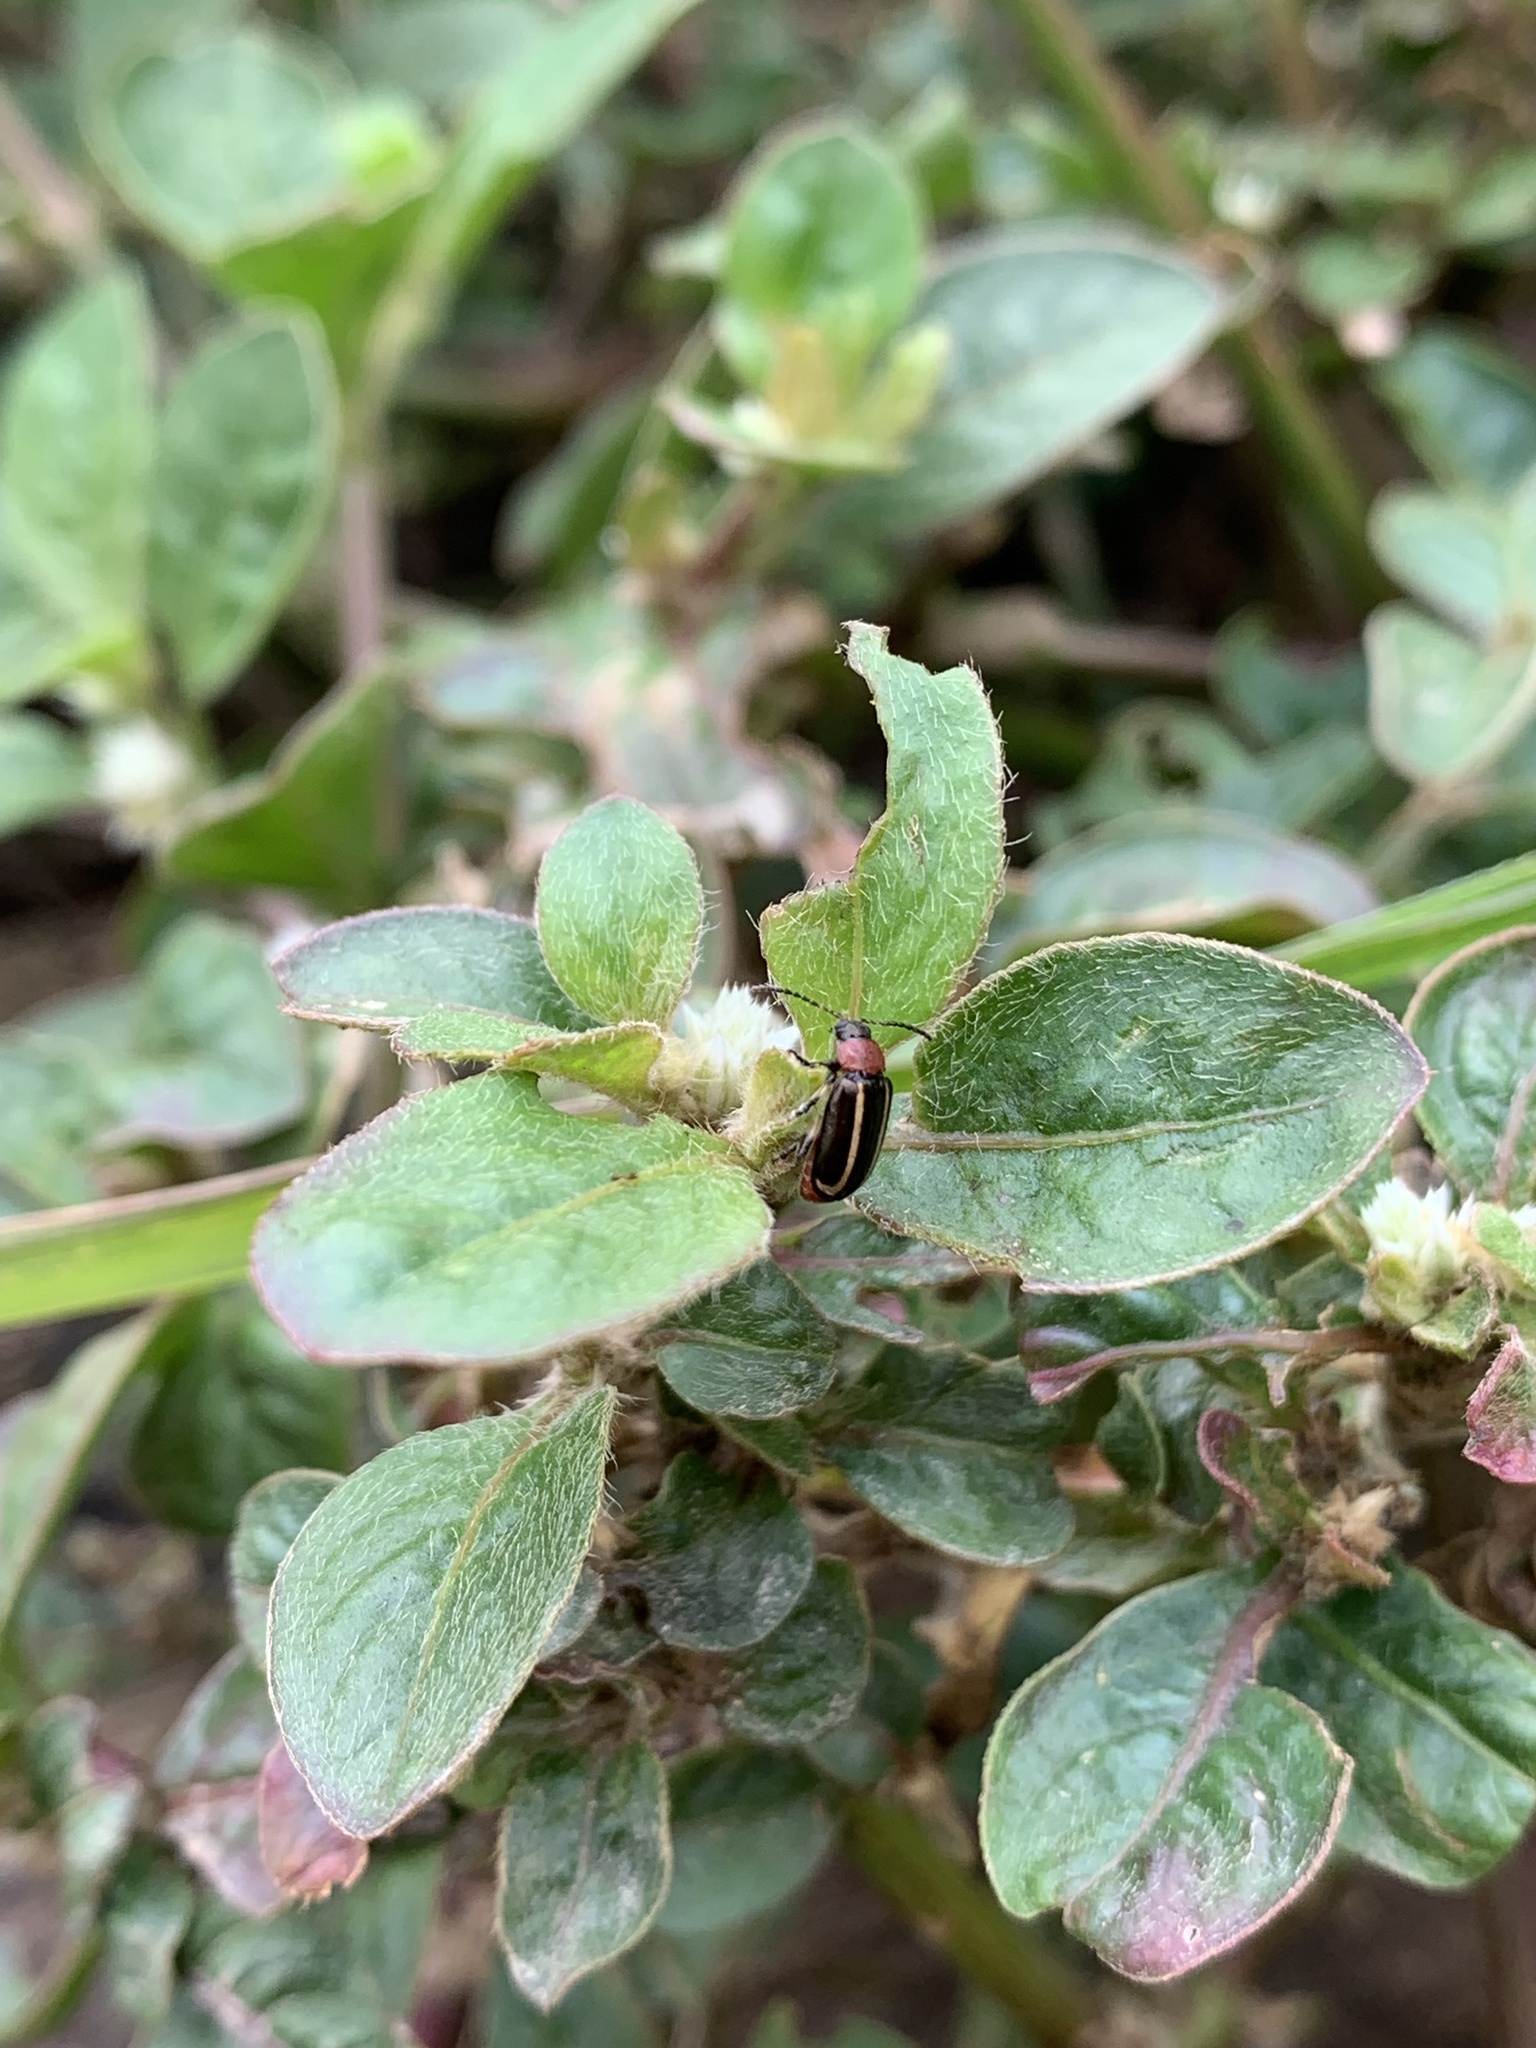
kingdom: Animalia
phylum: Arthropoda
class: Insecta
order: Coleoptera
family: Chrysomelidae
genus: Disonycha
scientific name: Disonycha
